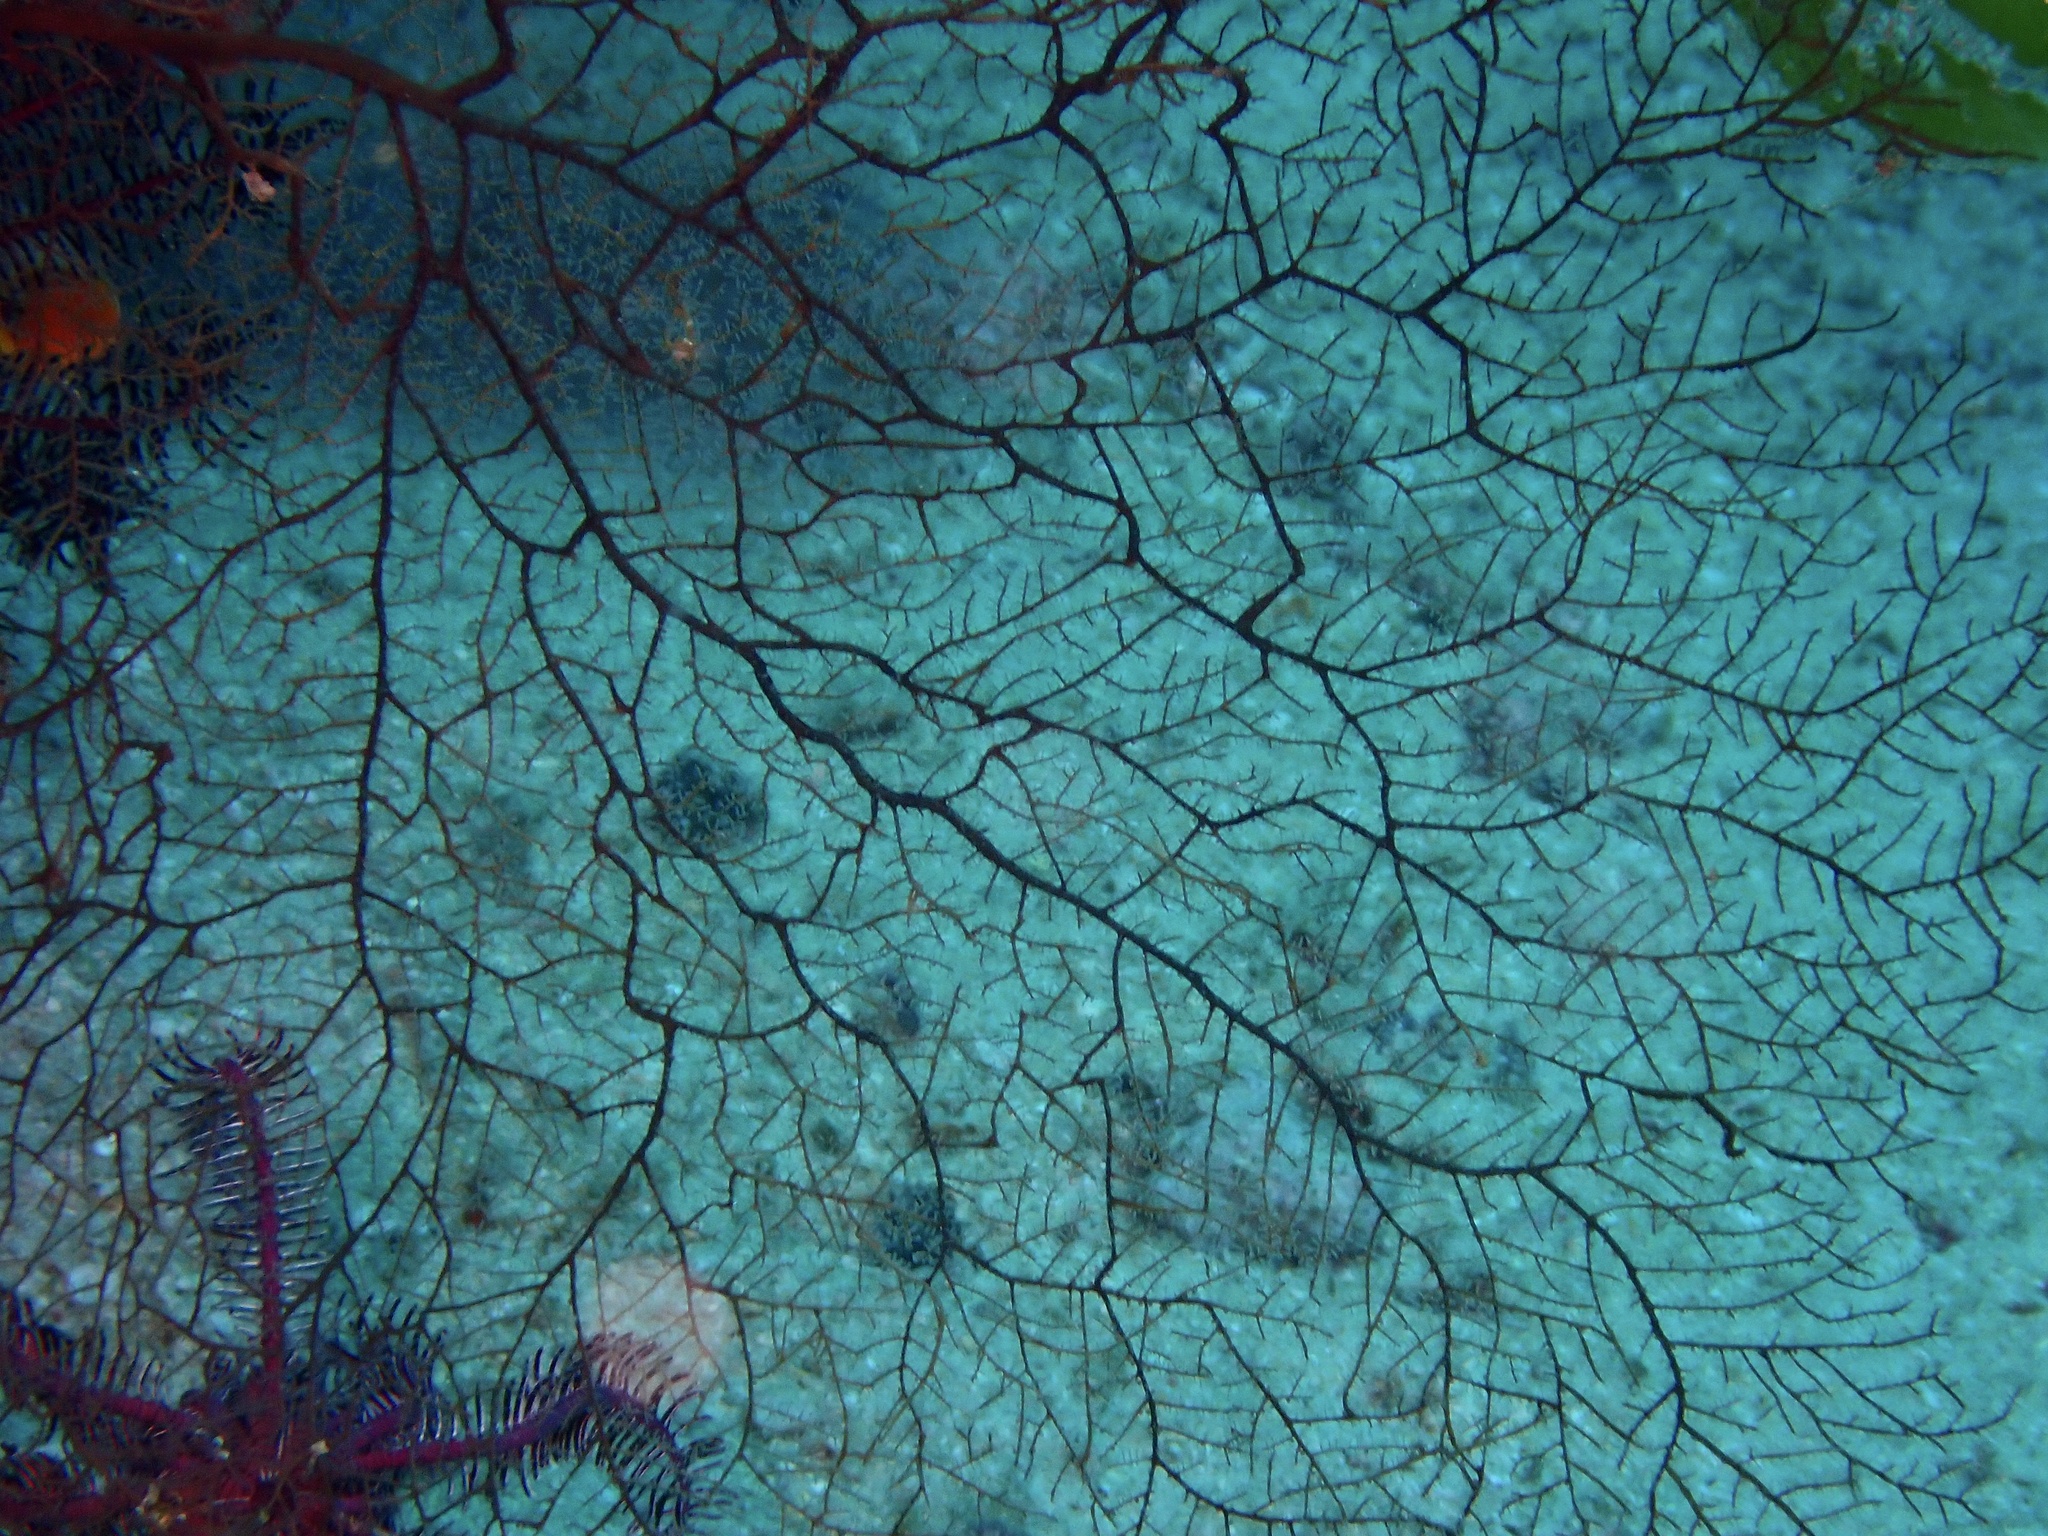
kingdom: Animalia
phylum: Cnidaria
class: Hydrozoa
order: Anthoathecata
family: Solanderiidae
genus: Solanderia
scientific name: Solanderia secunda
